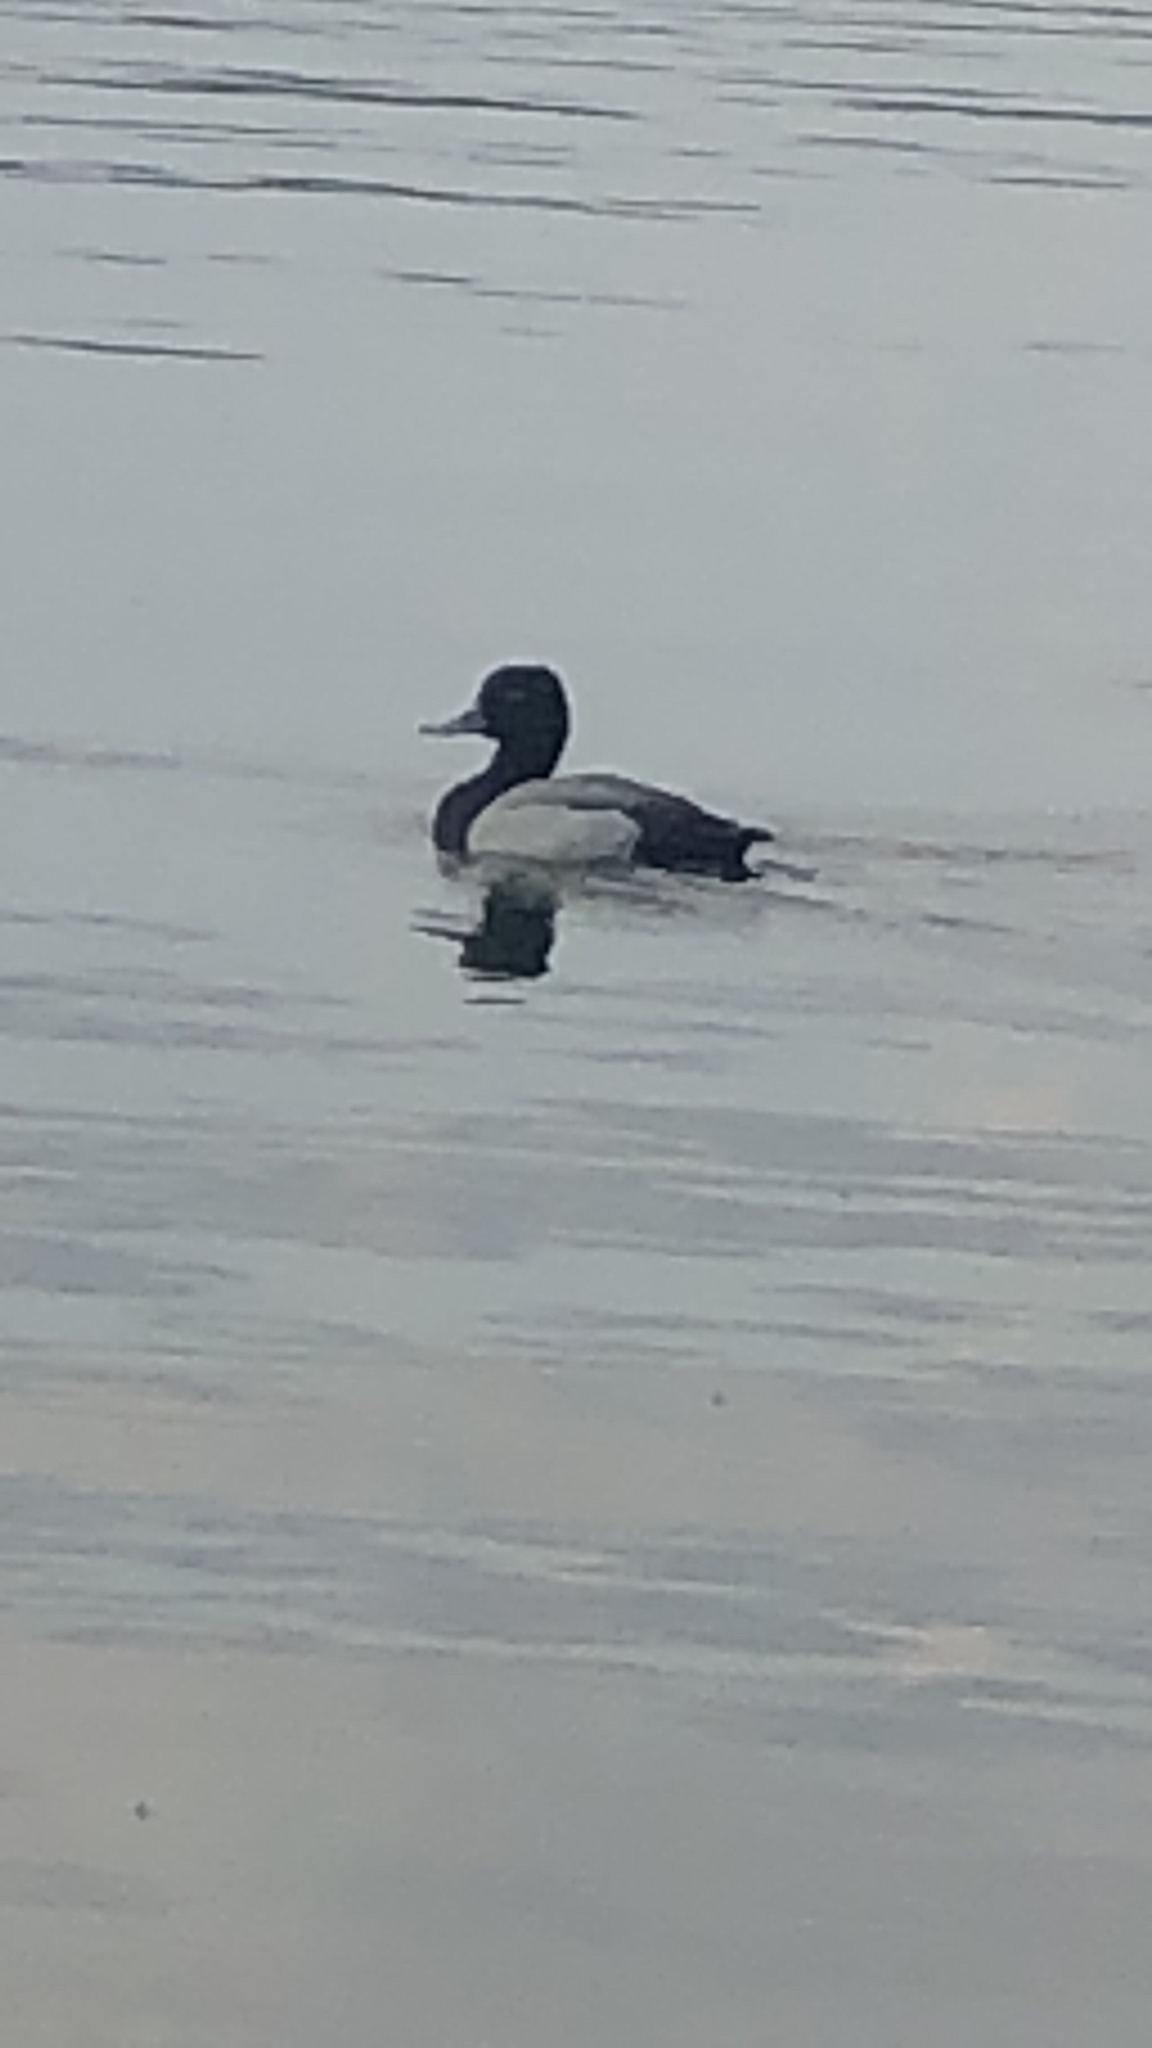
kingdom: Animalia
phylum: Chordata
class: Aves
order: Anseriformes
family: Anatidae
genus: Aythya
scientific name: Aythya affinis
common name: Lesser scaup
